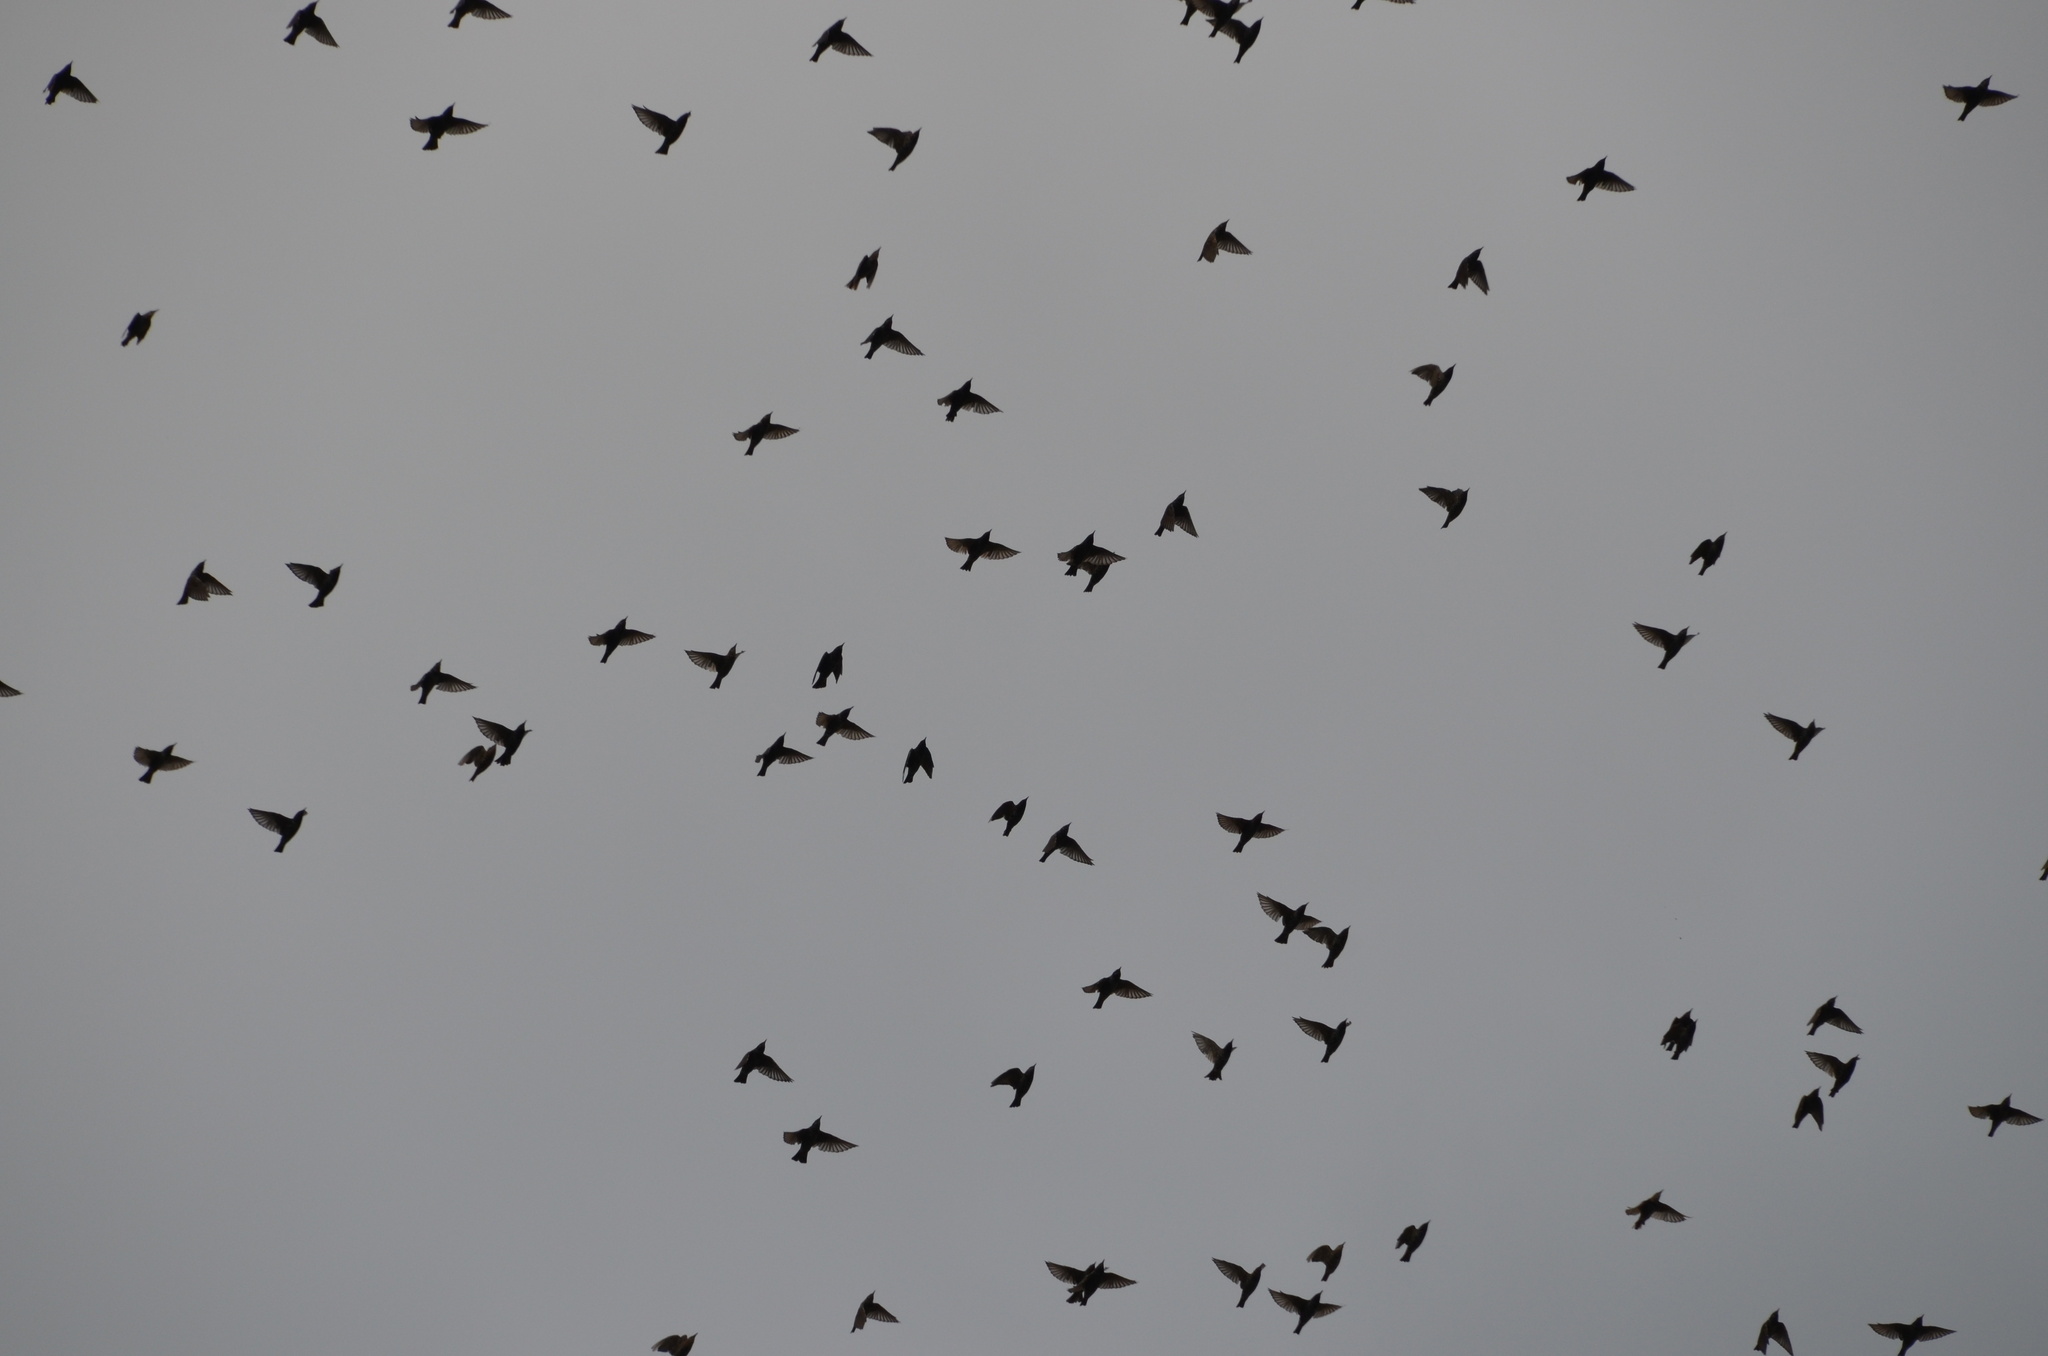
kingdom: Animalia
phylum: Chordata
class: Aves
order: Passeriformes
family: Sturnidae
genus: Sturnus
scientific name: Sturnus vulgaris
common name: Common starling
